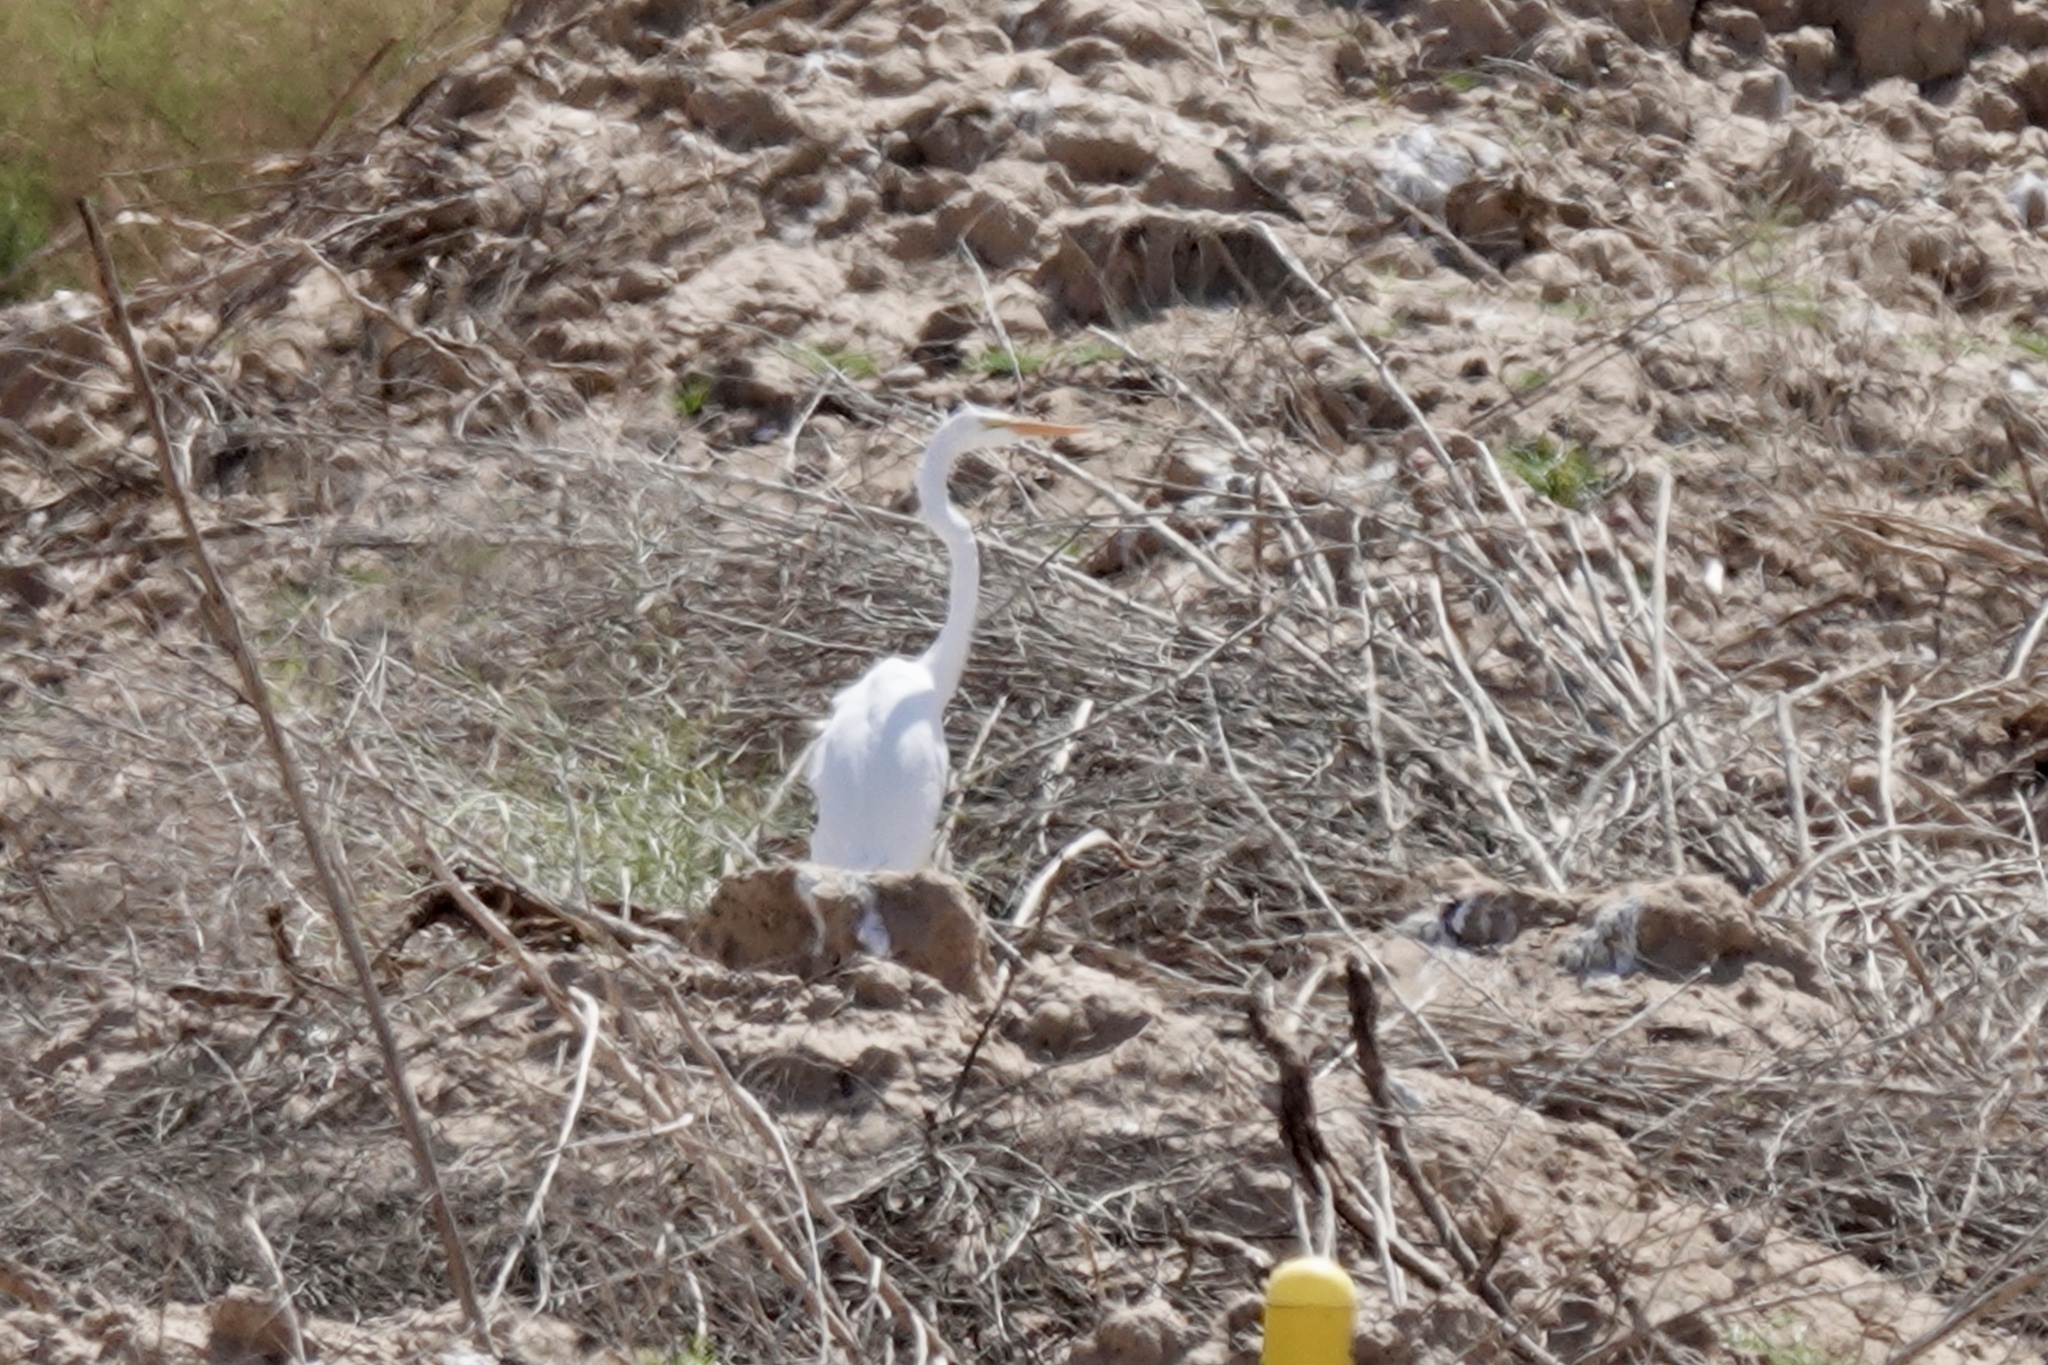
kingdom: Animalia
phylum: Chordata
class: Aves
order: Pelecaniformes
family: Ardeidae
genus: Ardea
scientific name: Ardea alba
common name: Great egret
